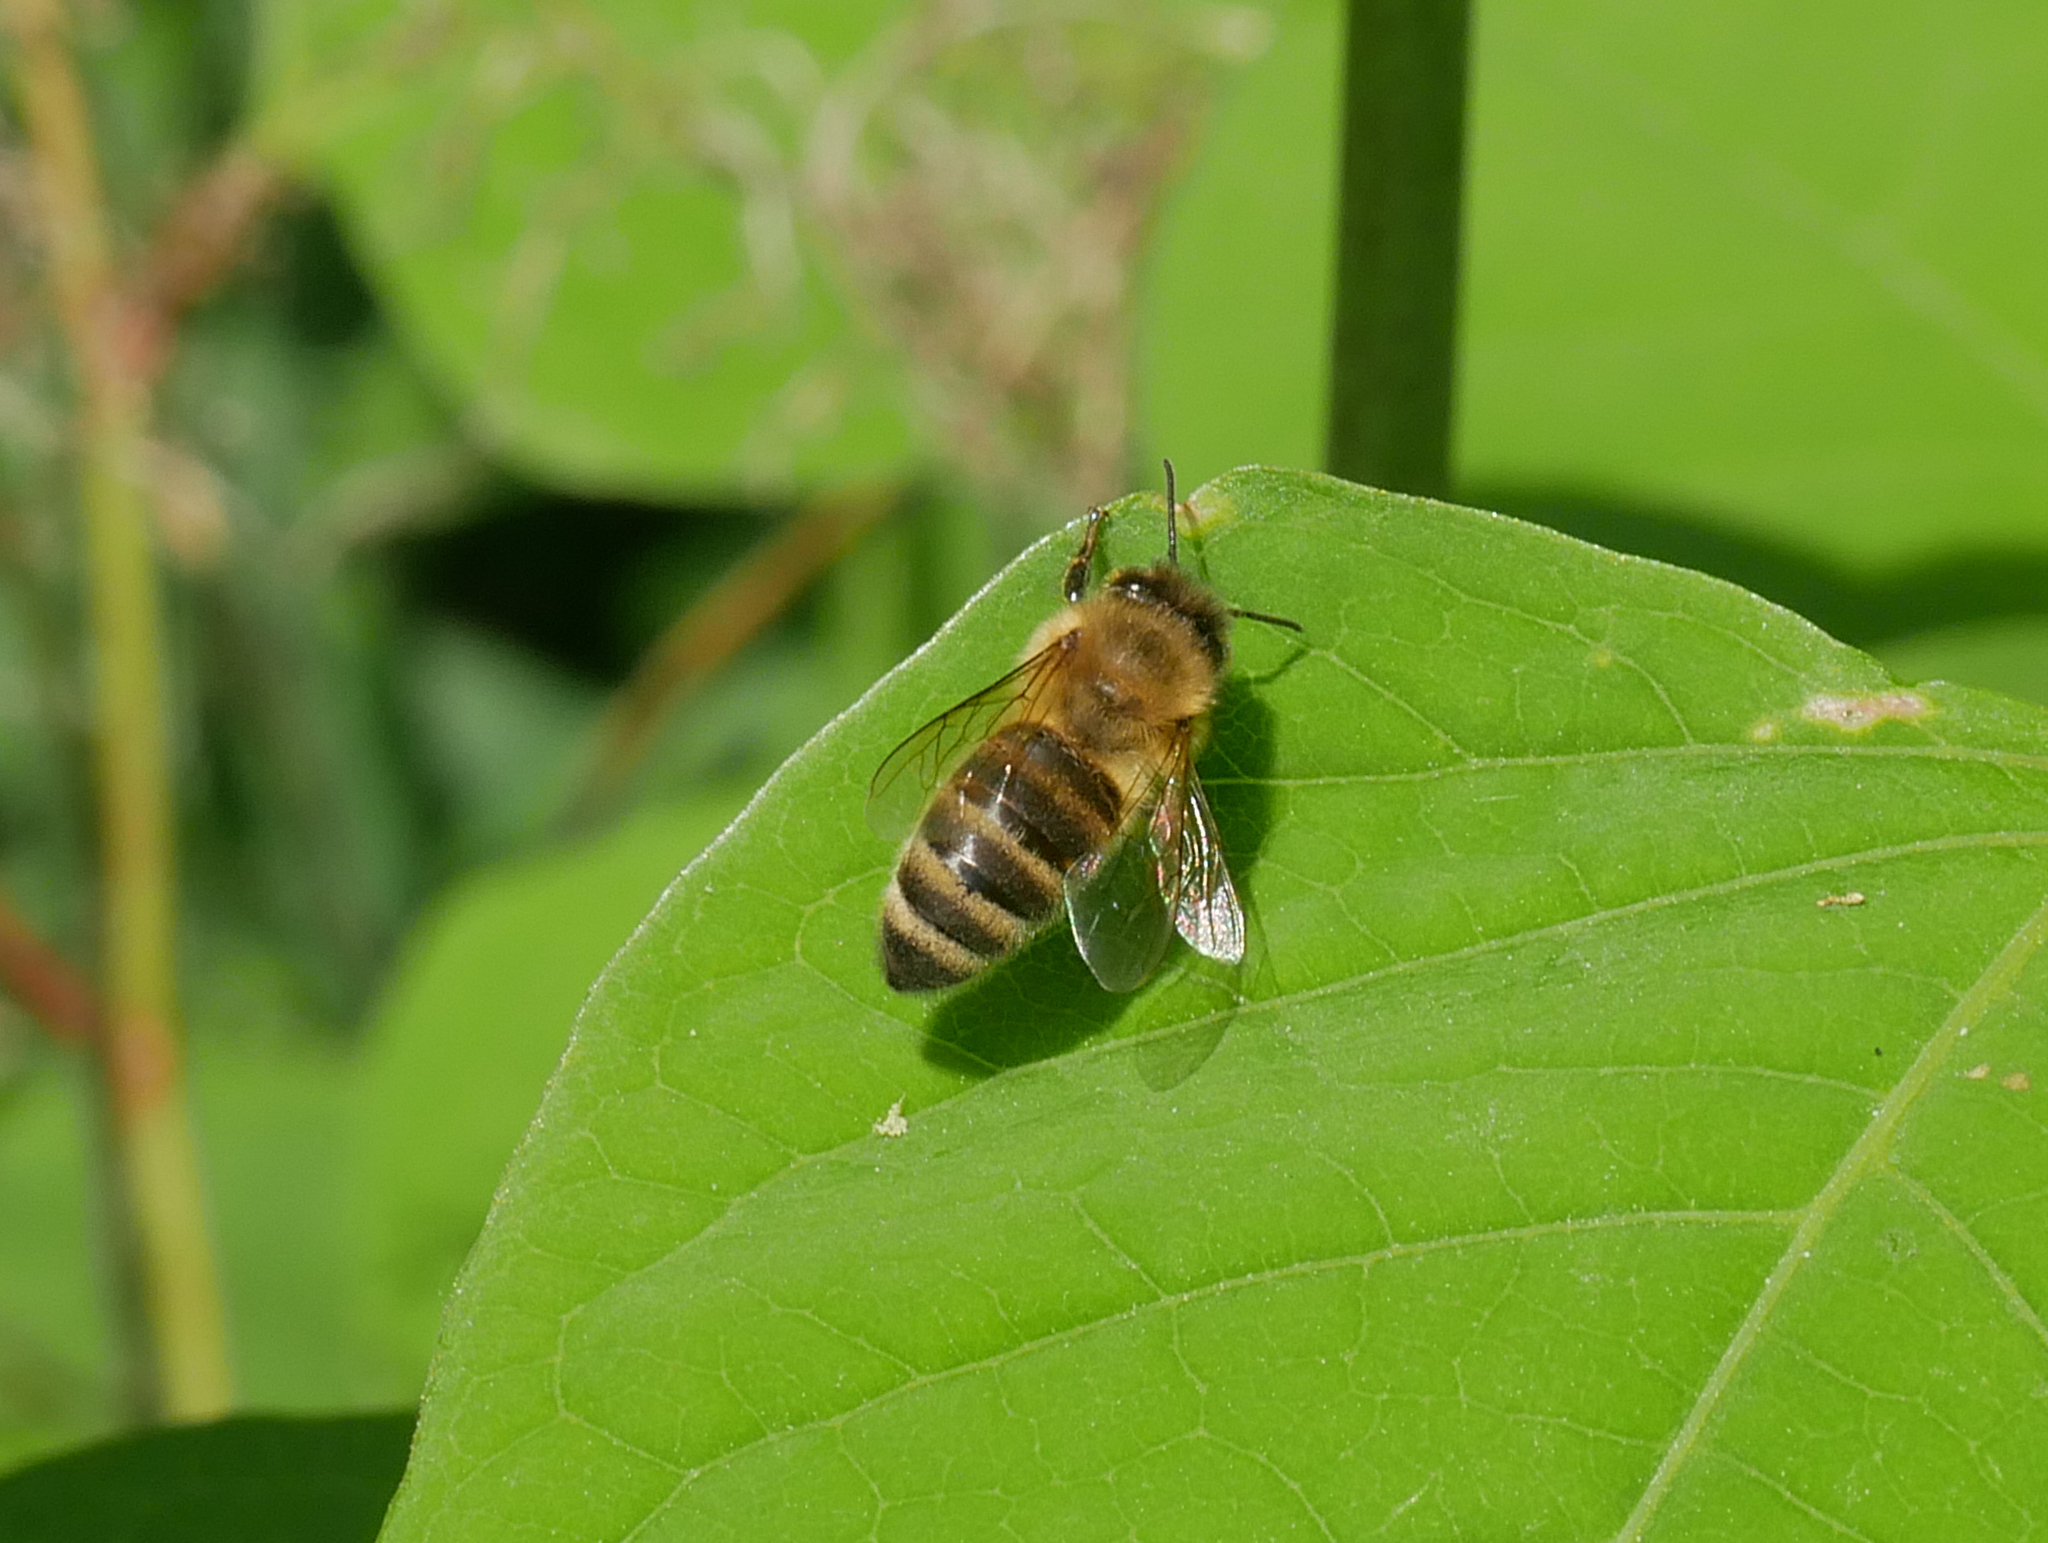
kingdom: Animalia
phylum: Arthropoda
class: Insecta
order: Hymenoptera
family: Apidae
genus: Apis
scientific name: Apis mellifera
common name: Honey bee
